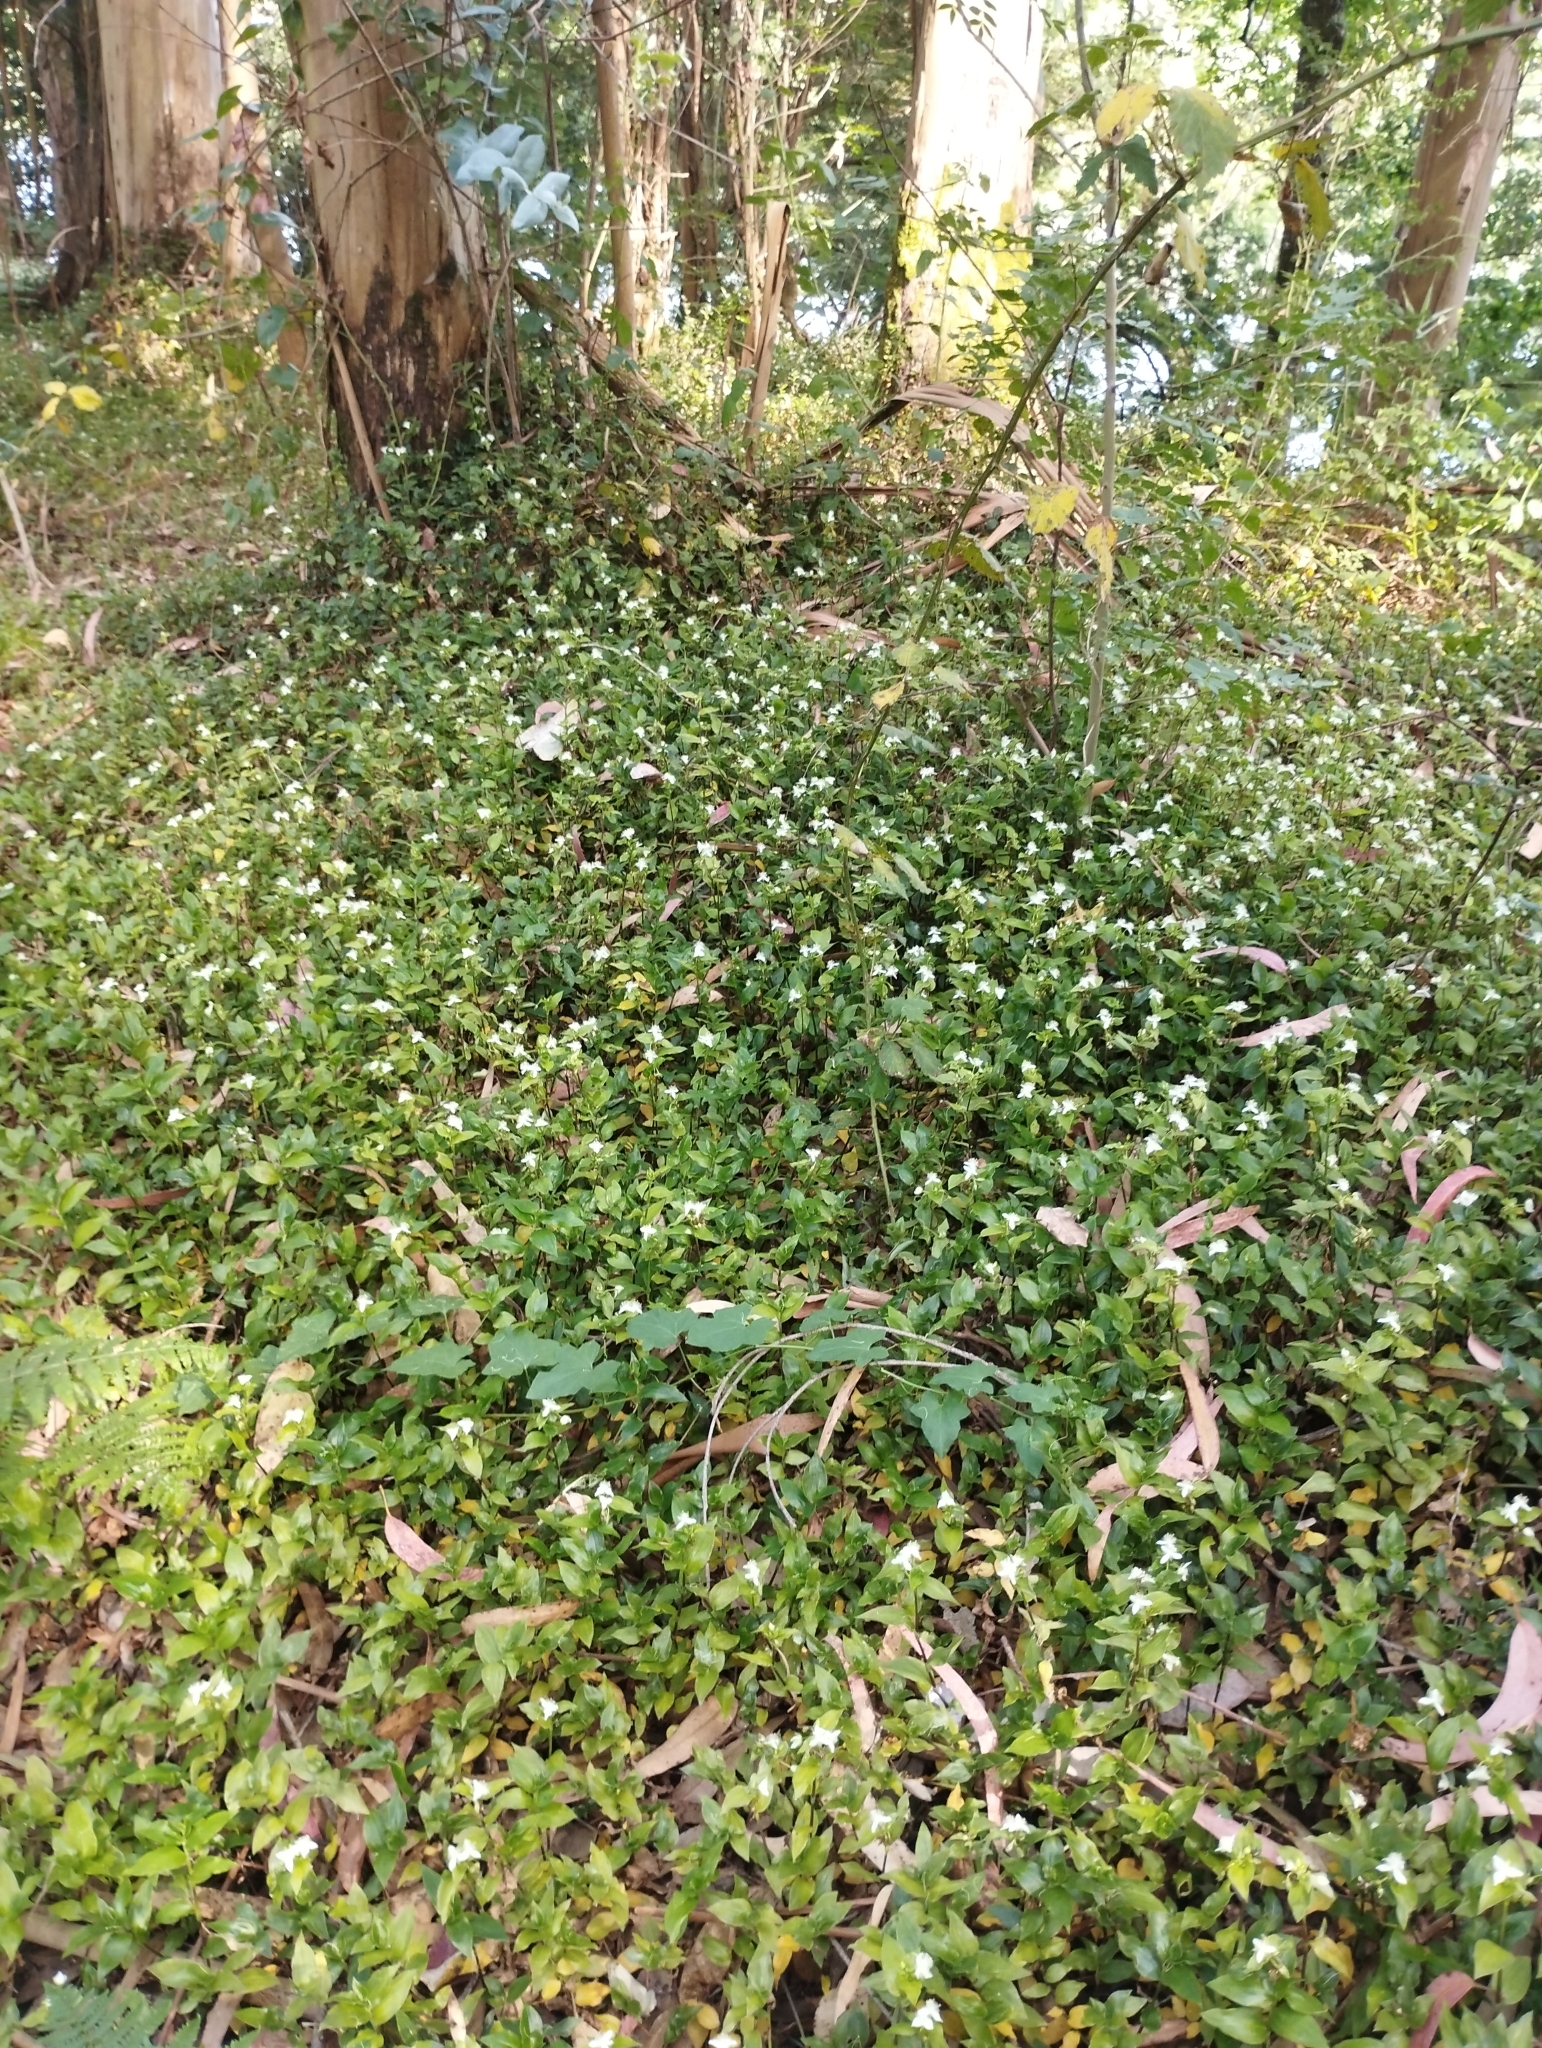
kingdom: Plantae
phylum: Tracheophyta
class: Liliopsida
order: Commelinales
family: Commelinaceae
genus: Tradescantia
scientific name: Tradescantia fluminensis
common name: Wandering-jew
